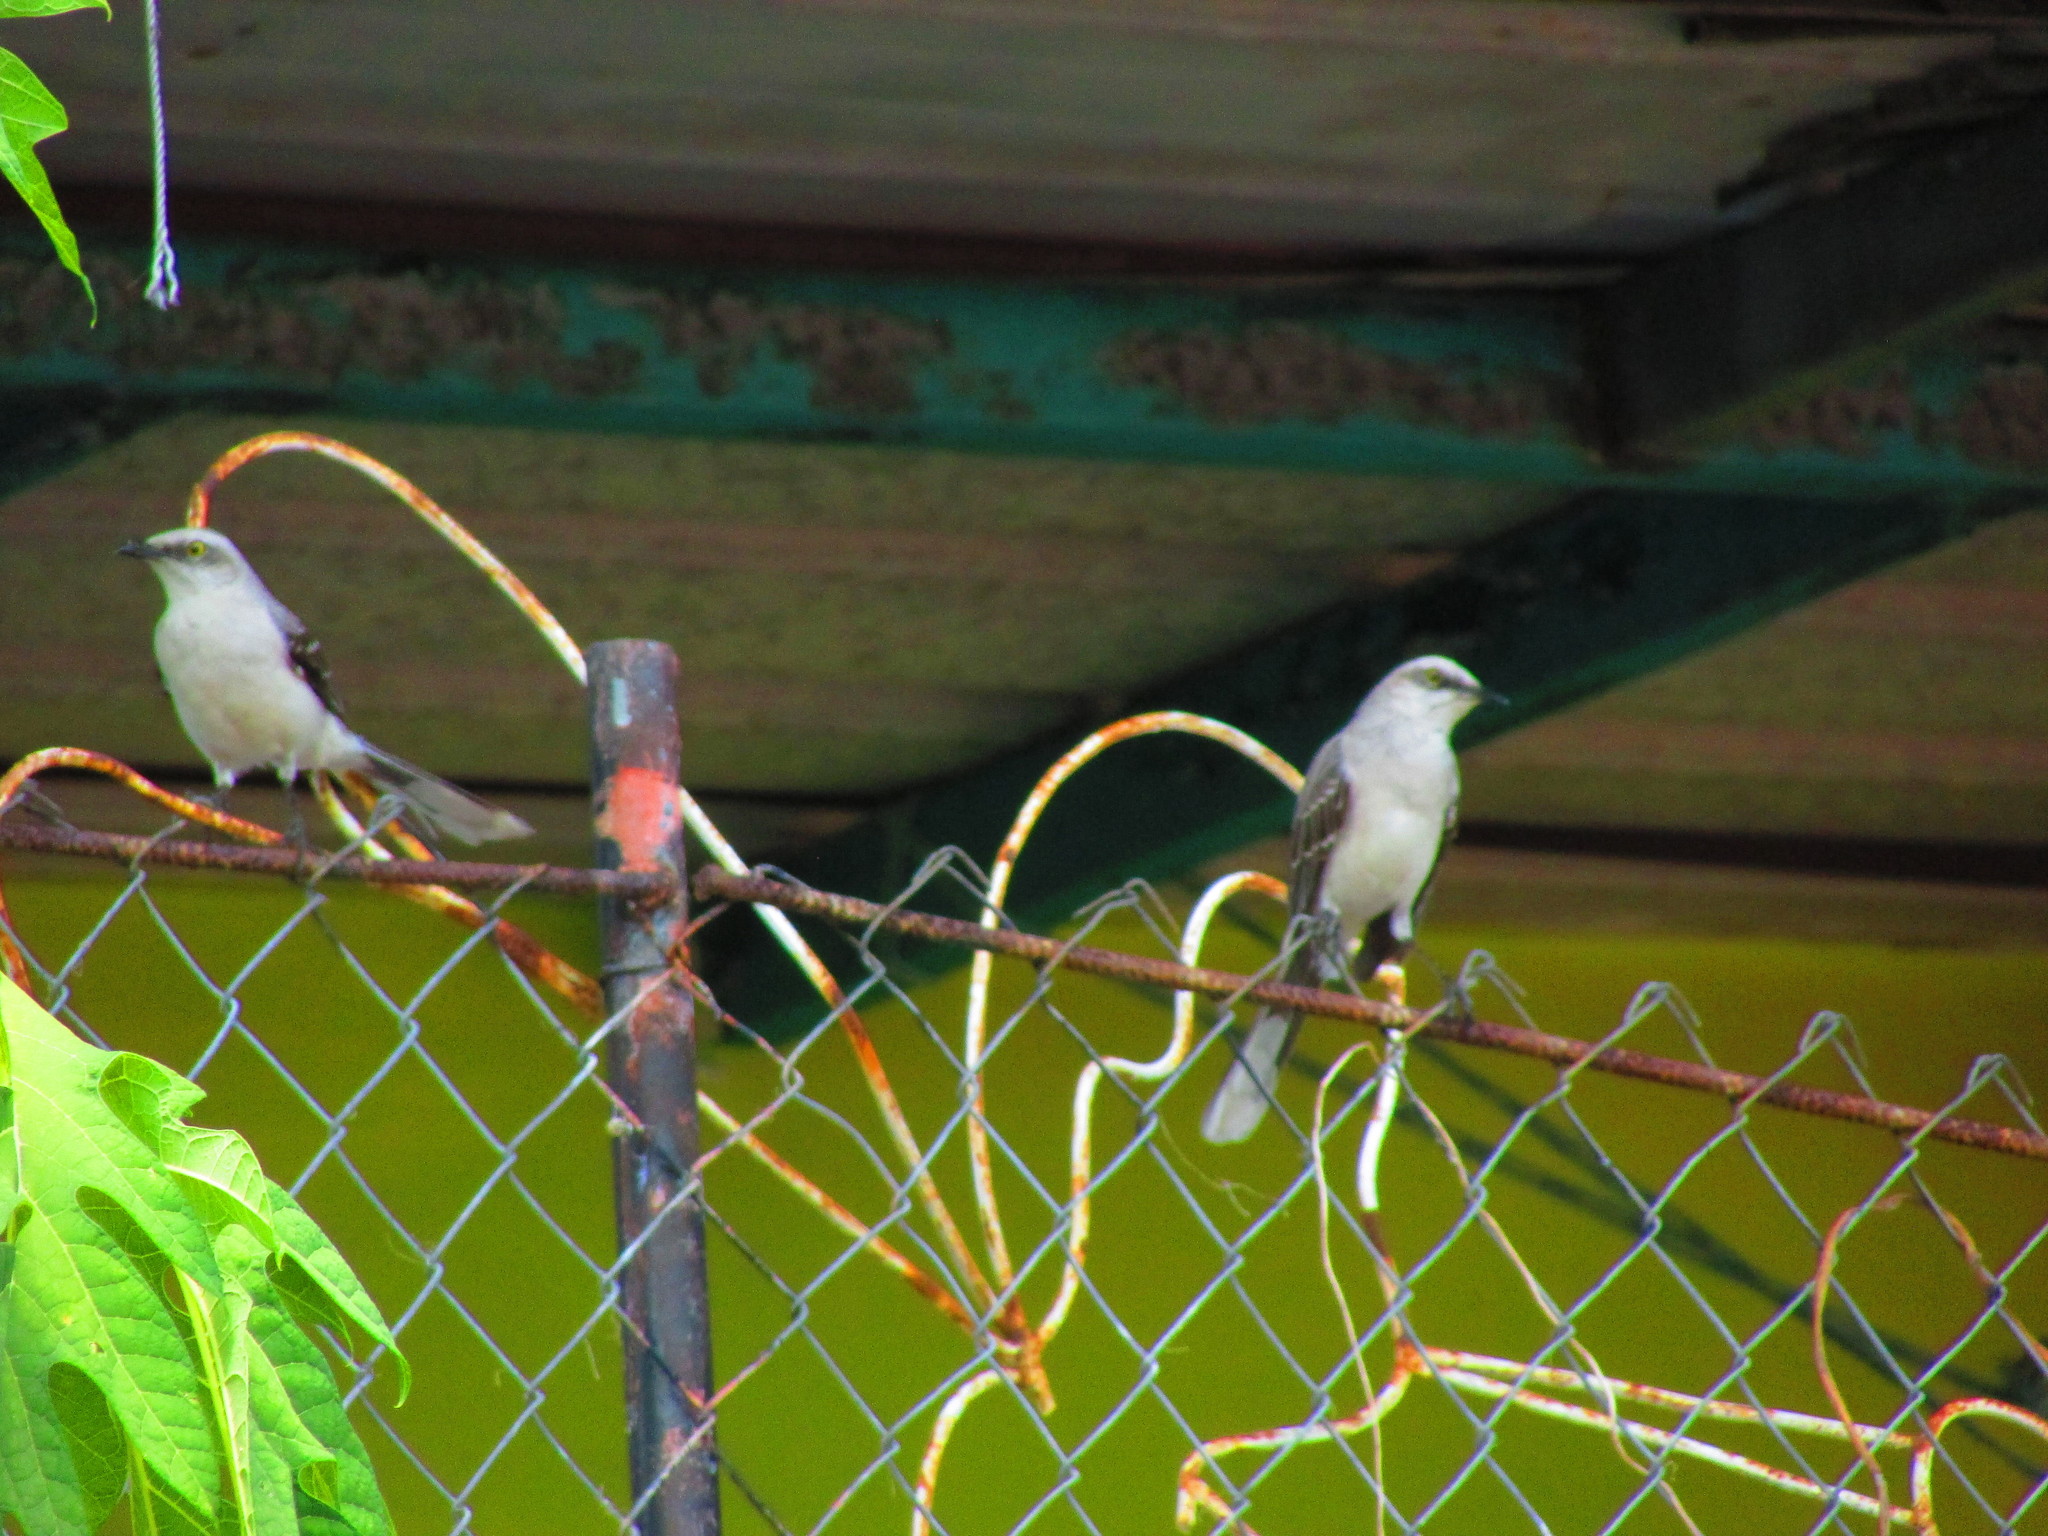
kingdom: Animalia
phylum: Chordata
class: Aves
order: Passeriformes
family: Mimidae
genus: Mimus
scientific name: Mimus gilvus
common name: Tropical mockingbird
